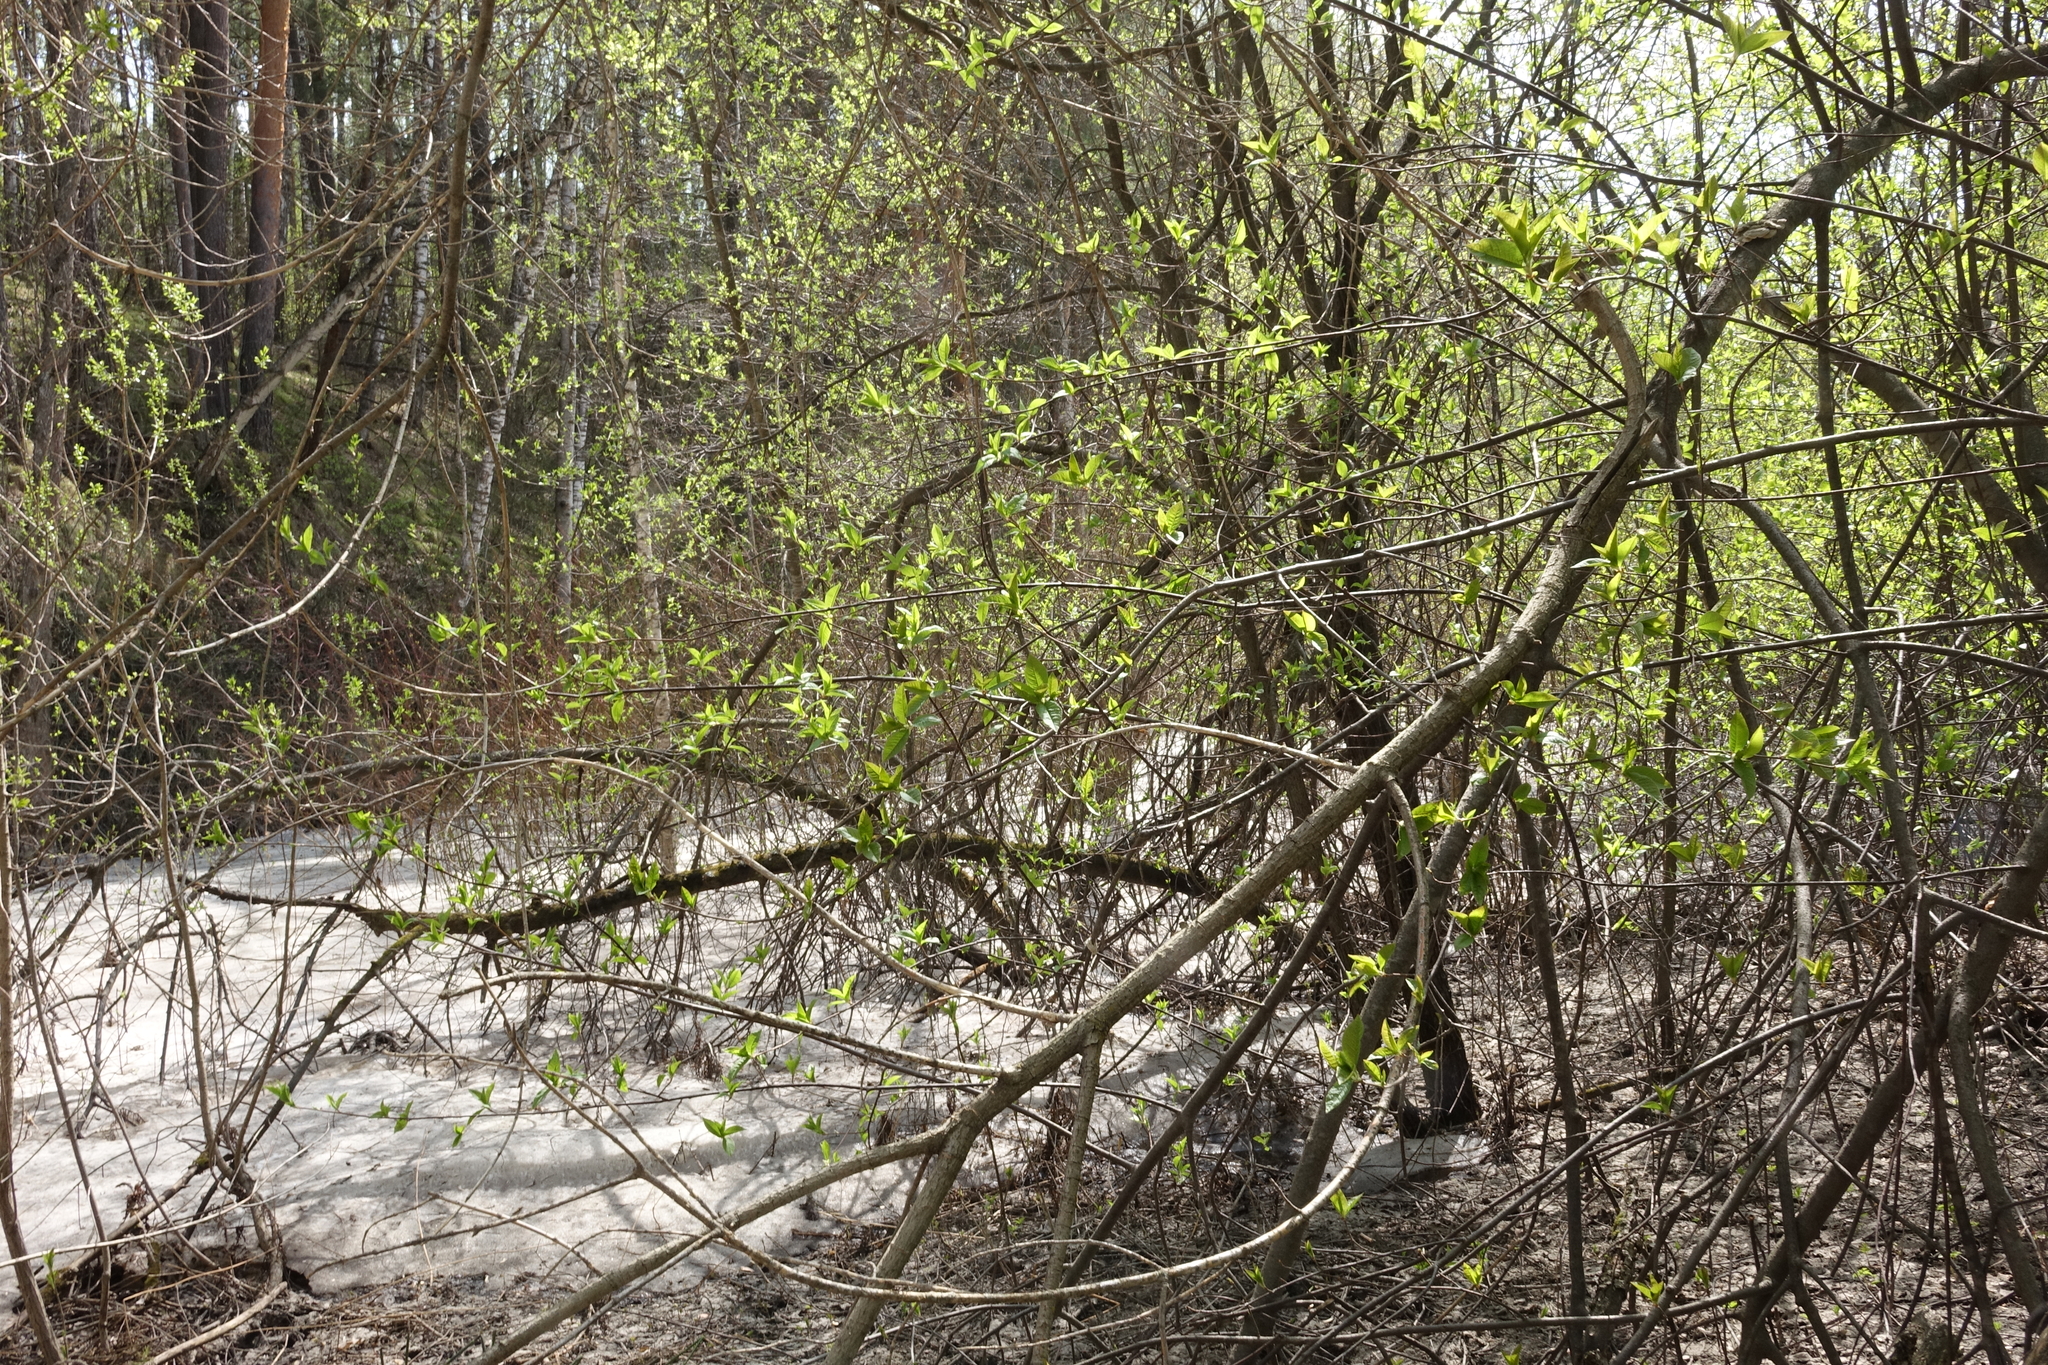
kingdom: Plantae
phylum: Tracheophyta
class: Magnoliopsida
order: Rosales
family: Rosaceae
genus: Prunus
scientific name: Prunus padus
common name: Bird cherry
